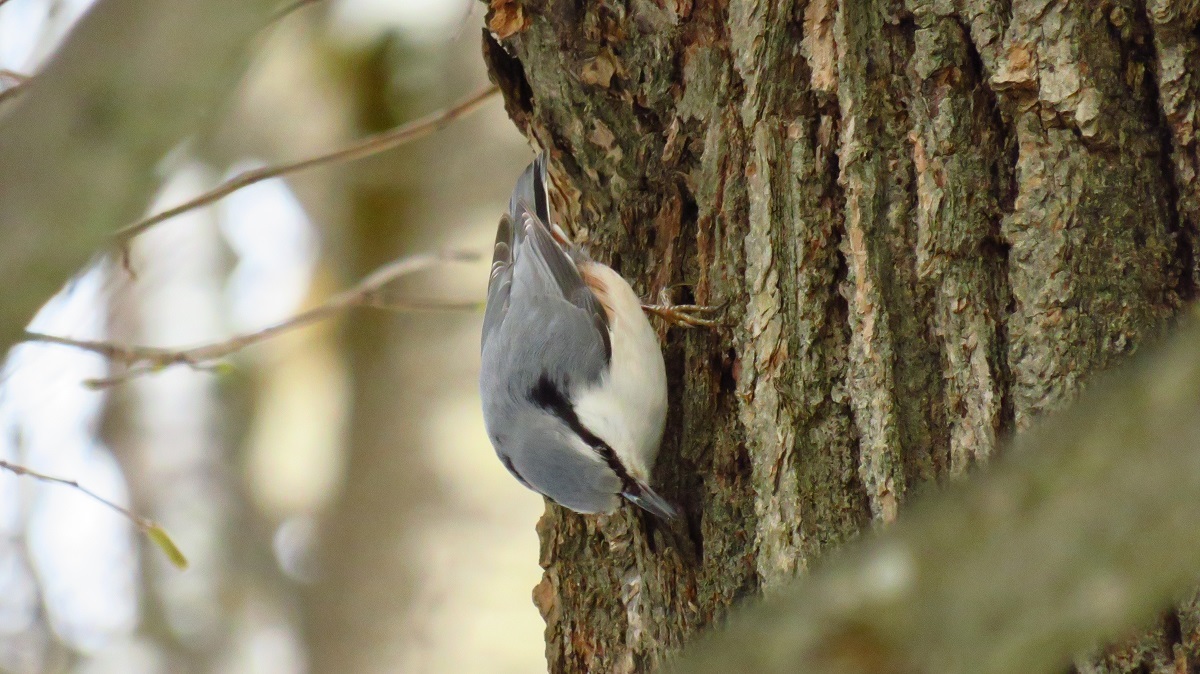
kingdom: Animalia
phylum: Chordata
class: Aves
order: Passeriformes
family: Sittidae
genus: Sitta
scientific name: Sitta europaea
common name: Eurasian nuthatch
